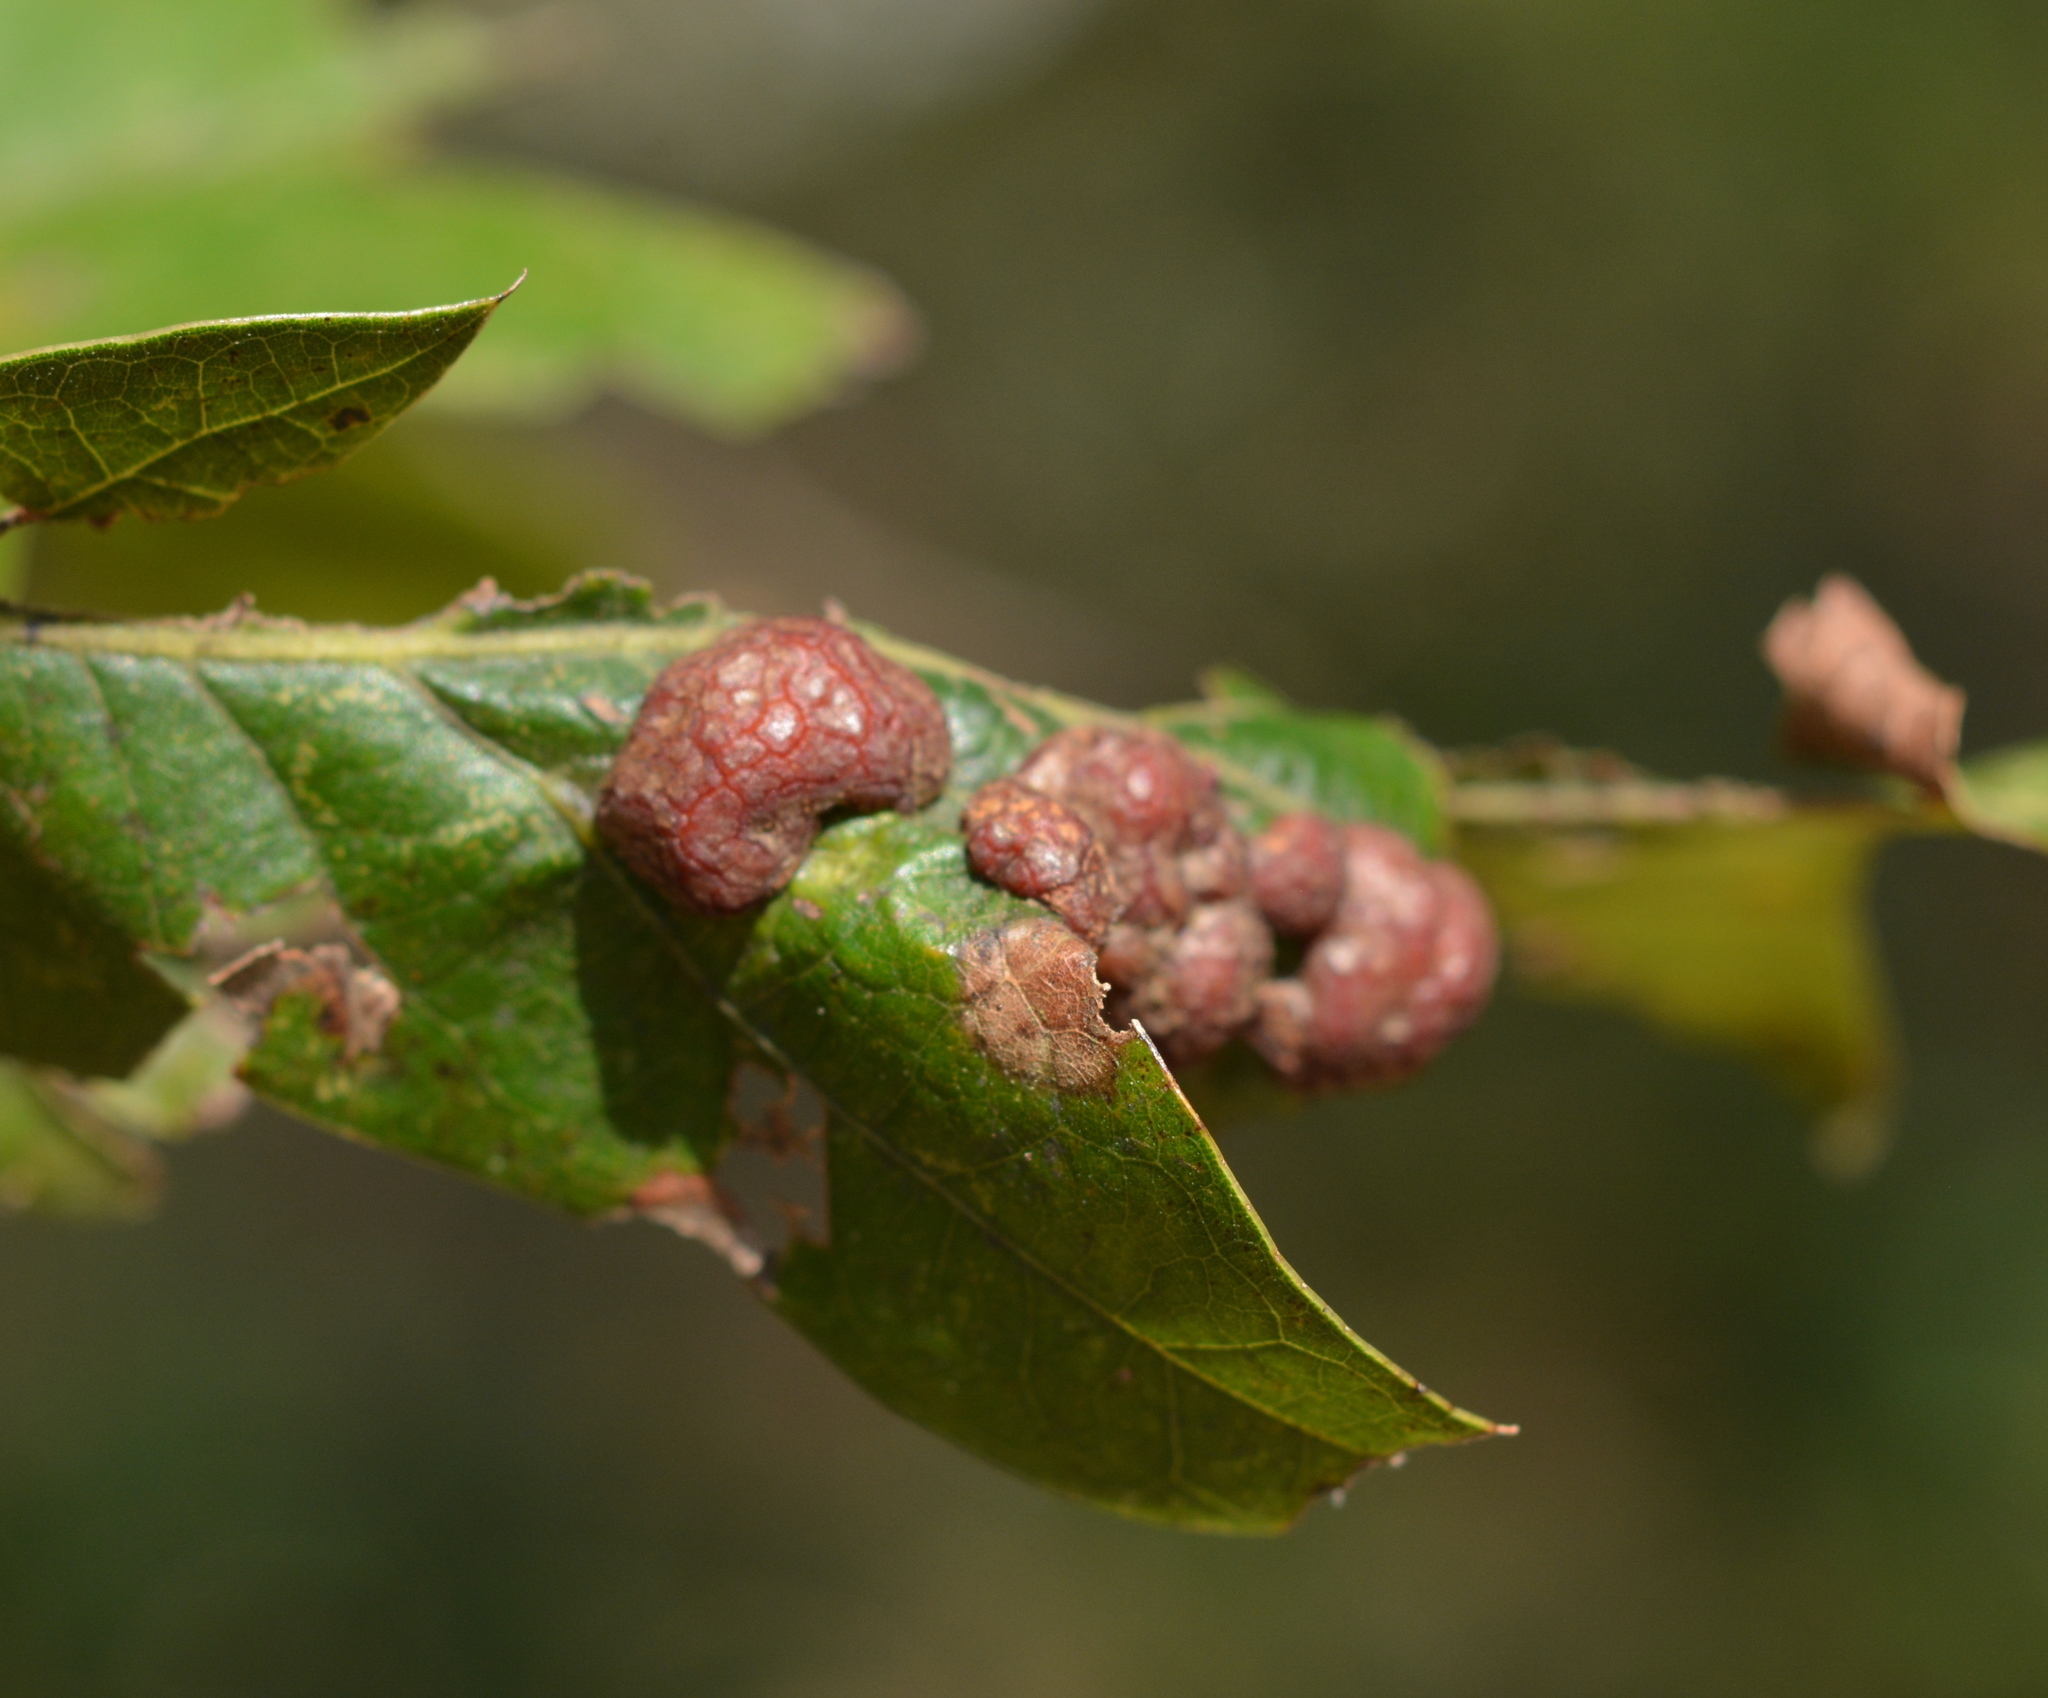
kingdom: Animalia
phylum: Arthropoda
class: Insecta
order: Diptera
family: Cecidomyiidae
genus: Polystepha
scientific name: Polystepha pilulae
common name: Oak leaf gall midge
